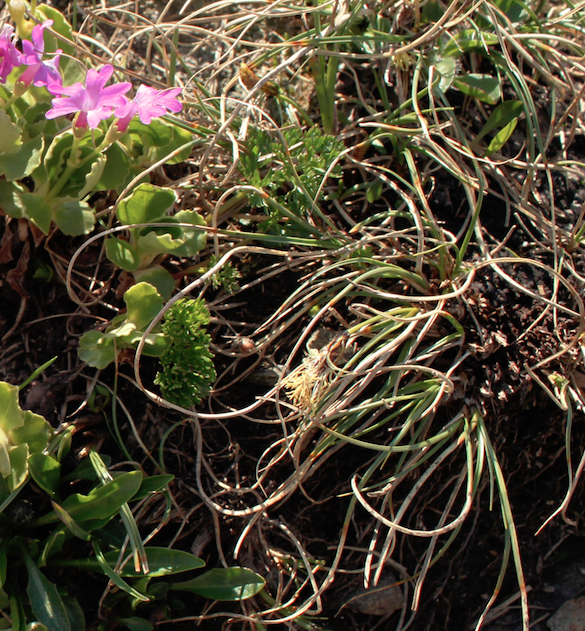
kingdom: Plantae
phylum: Tracheophyta
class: Liliopsida
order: Poales
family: Cyperaceae
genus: Carex
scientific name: Carex curvula
